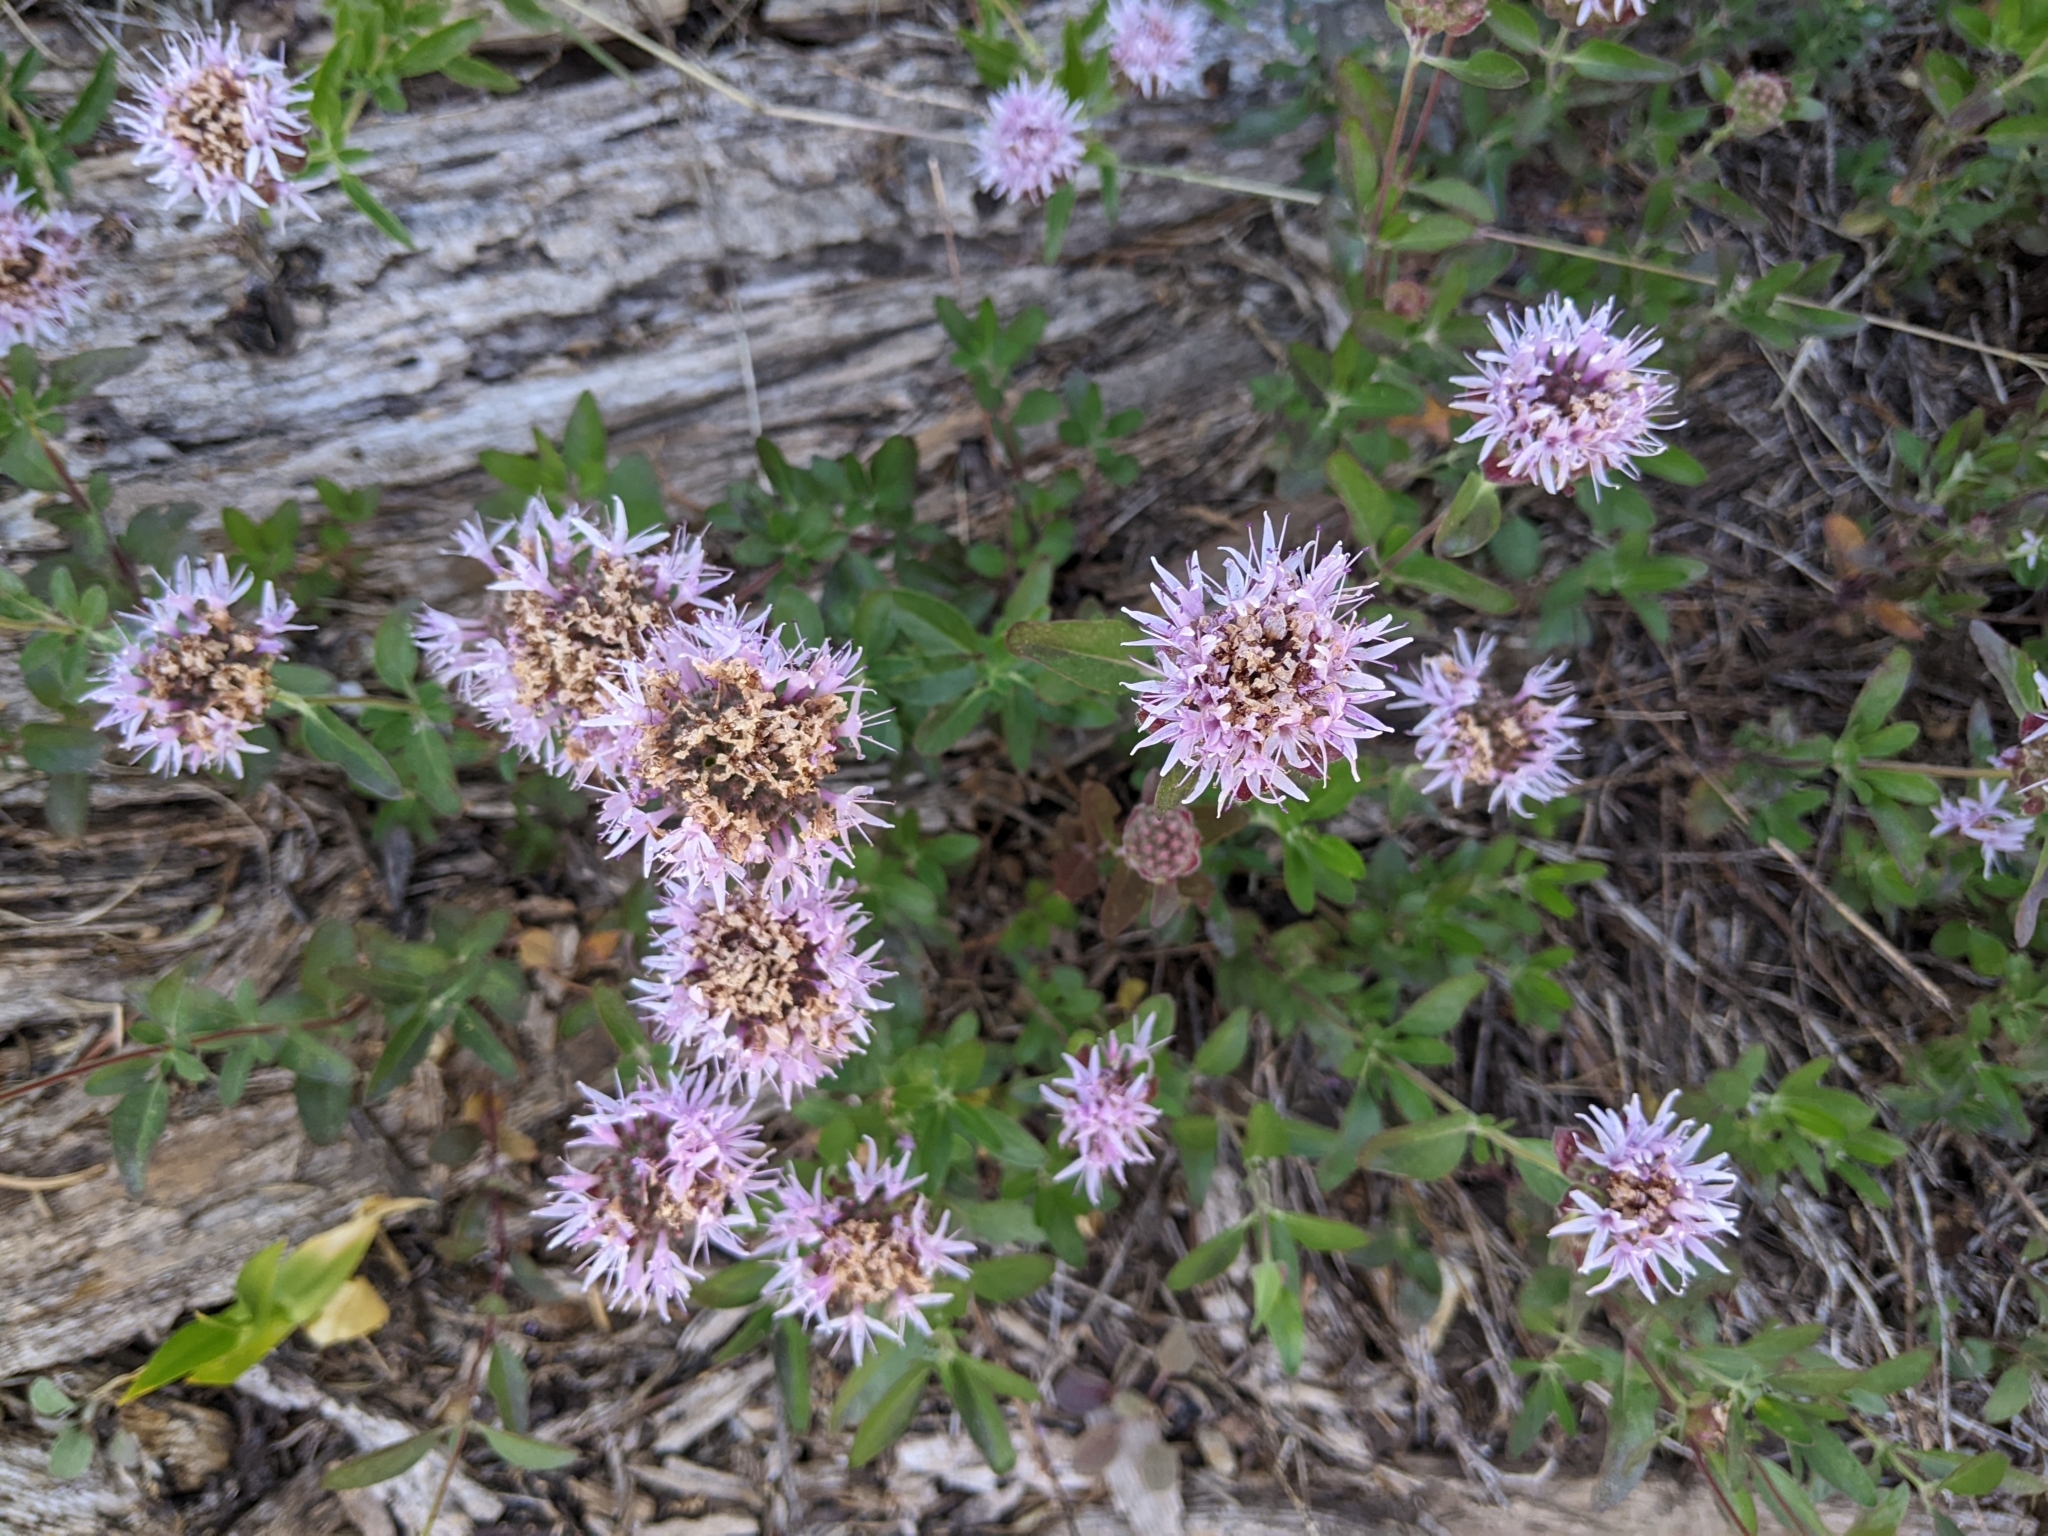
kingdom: Plantae
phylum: Tracheophyta
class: Magnoliopsida
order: Lamiales
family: Lamiaceae
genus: Monardella
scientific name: Monardella odoratissima
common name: Pacific monardella
